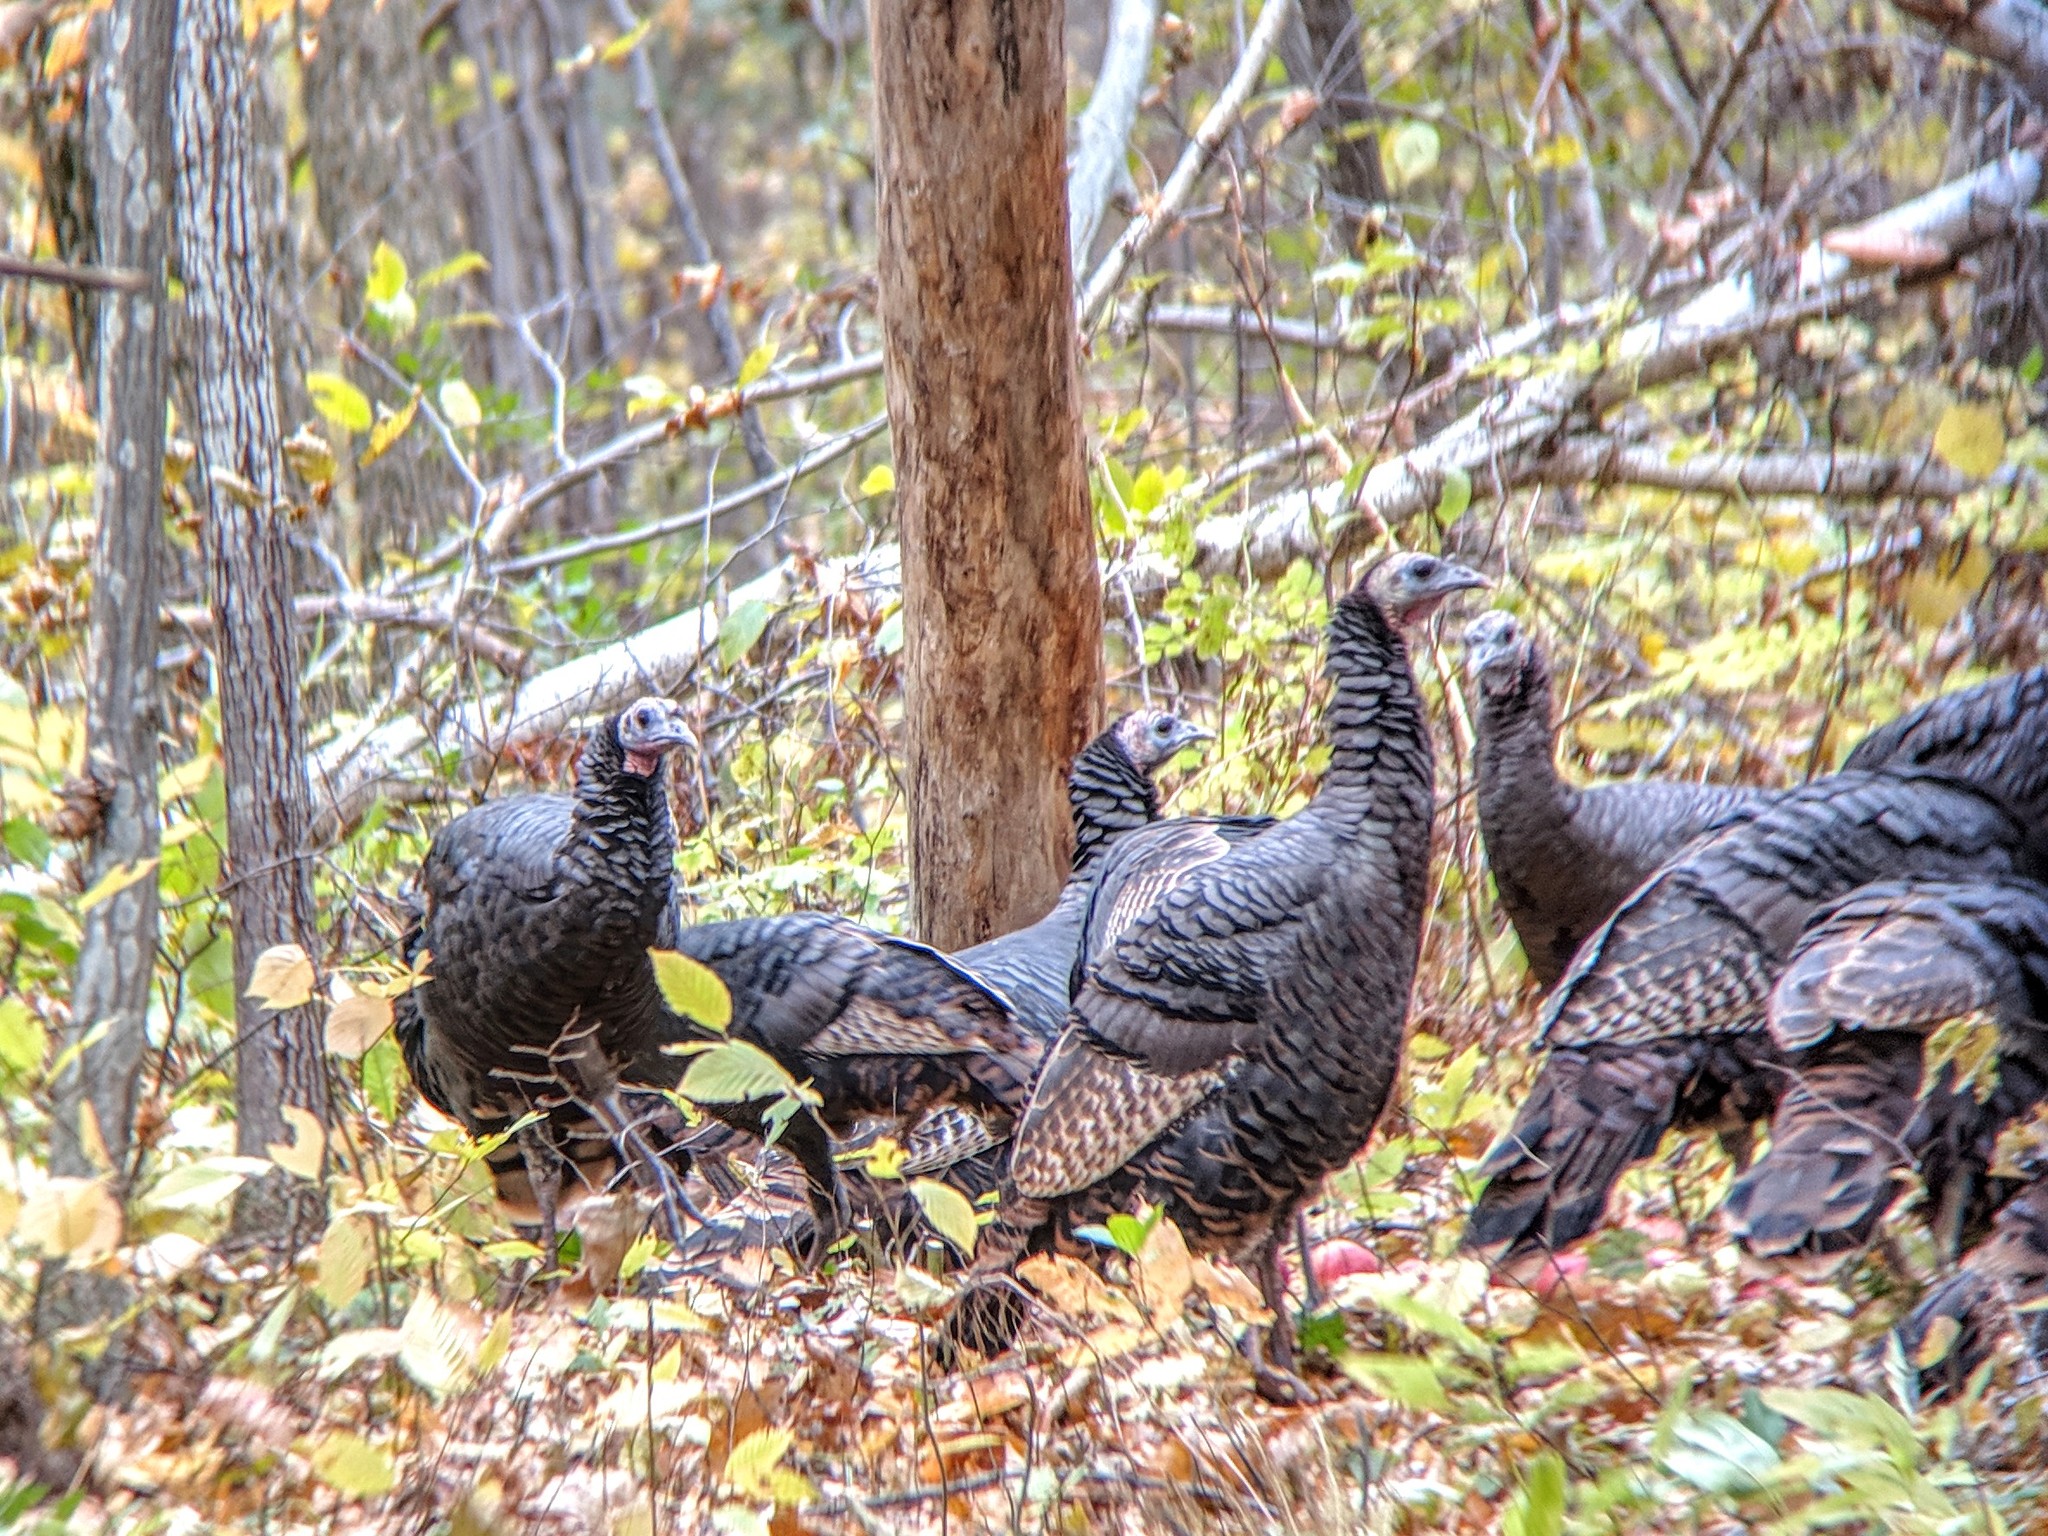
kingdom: Animalia
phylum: Chordata
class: Aves
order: Galliformes
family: Phasianidae
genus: Meleagris
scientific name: Meleagris gallopavo
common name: Wild turkey
